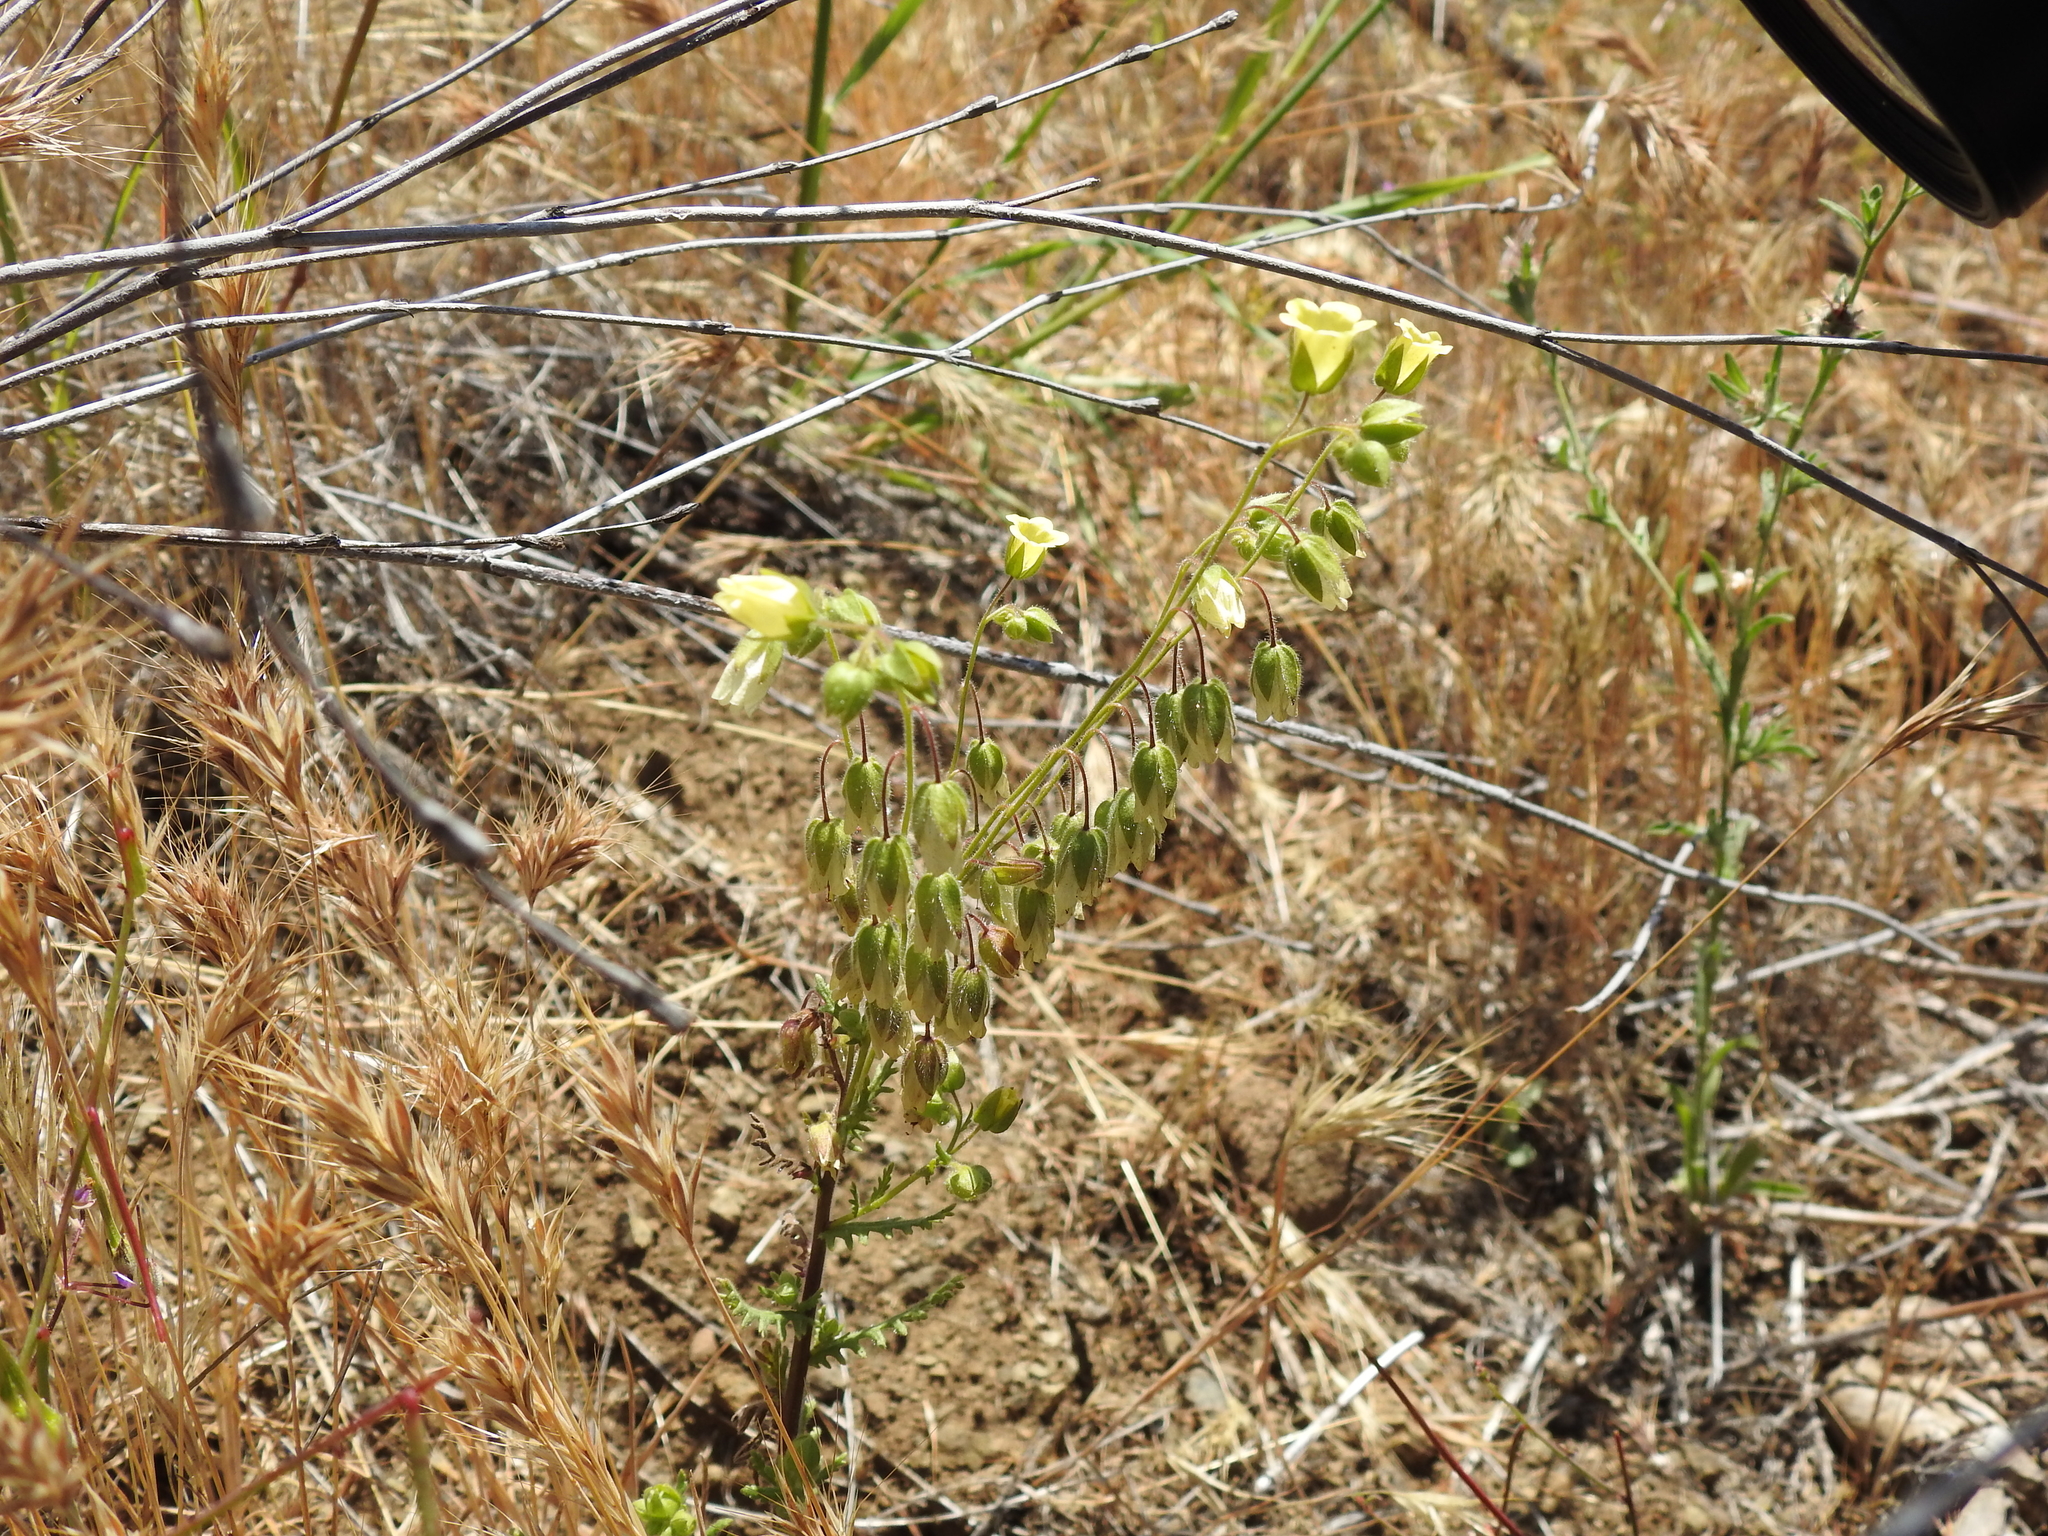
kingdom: Plantae
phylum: Tracheophyta
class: Magnoliopsida
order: Boraginales
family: Hydrophyllaceae
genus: Emmenanthe
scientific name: Emmenanthe penduliflora
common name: Whispering-bells
